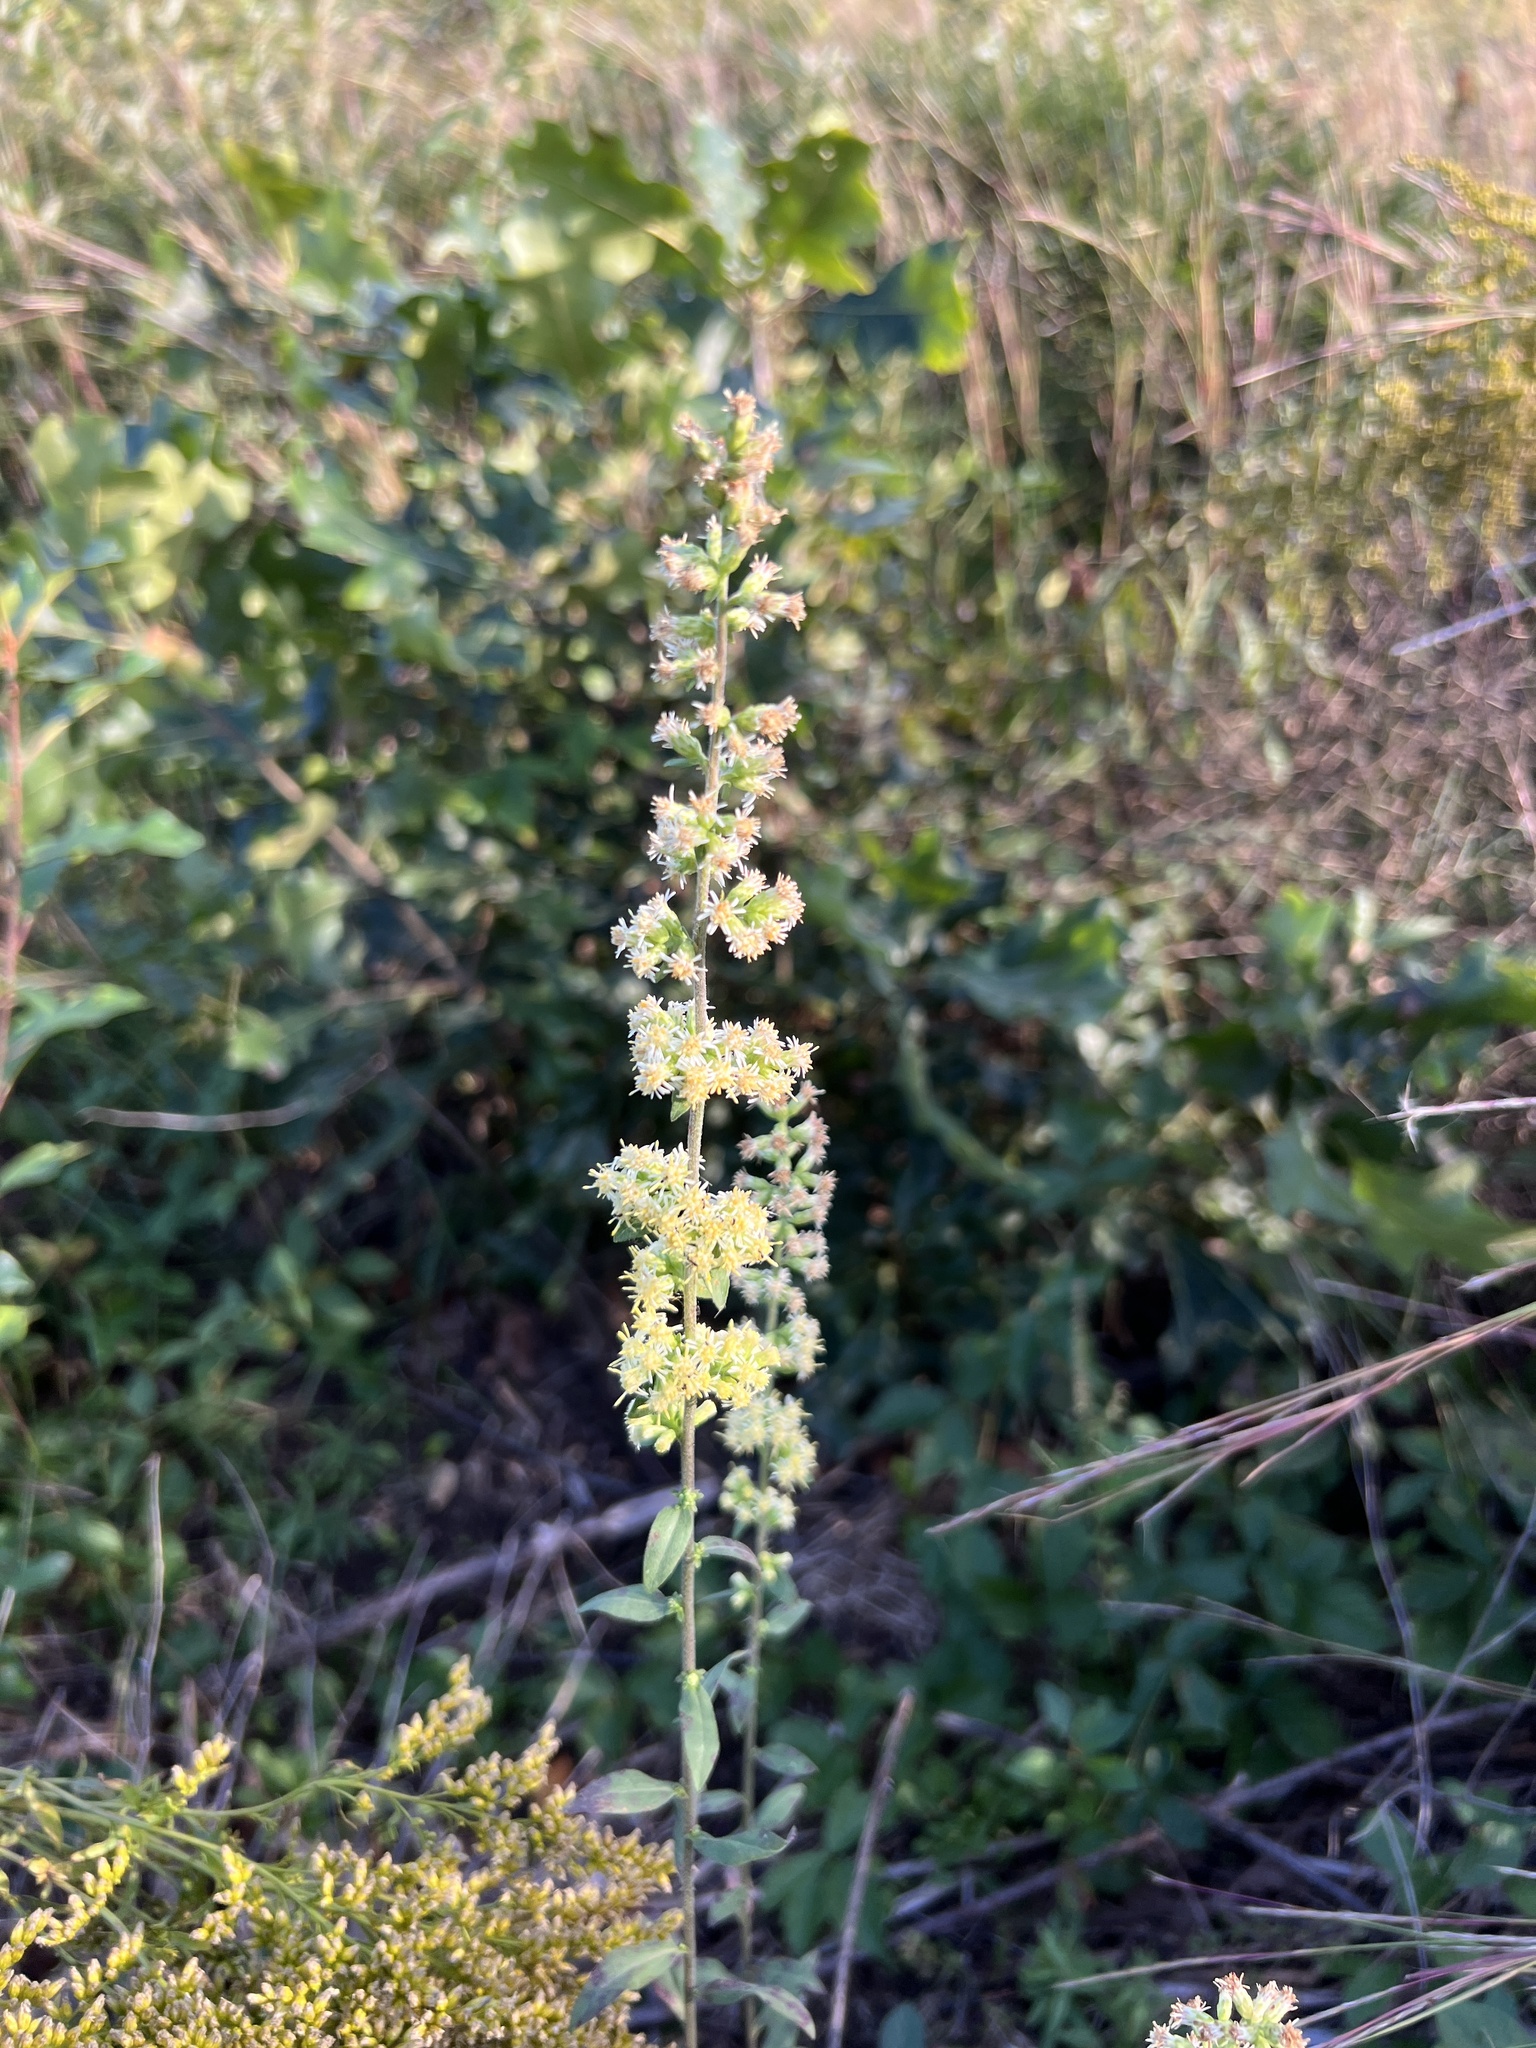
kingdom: Plantae
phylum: Tracheophyta
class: Magnoliopsida
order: Asterales
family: Asteraceae
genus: Solidago
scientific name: Solidago bicolor
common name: Silverrod
